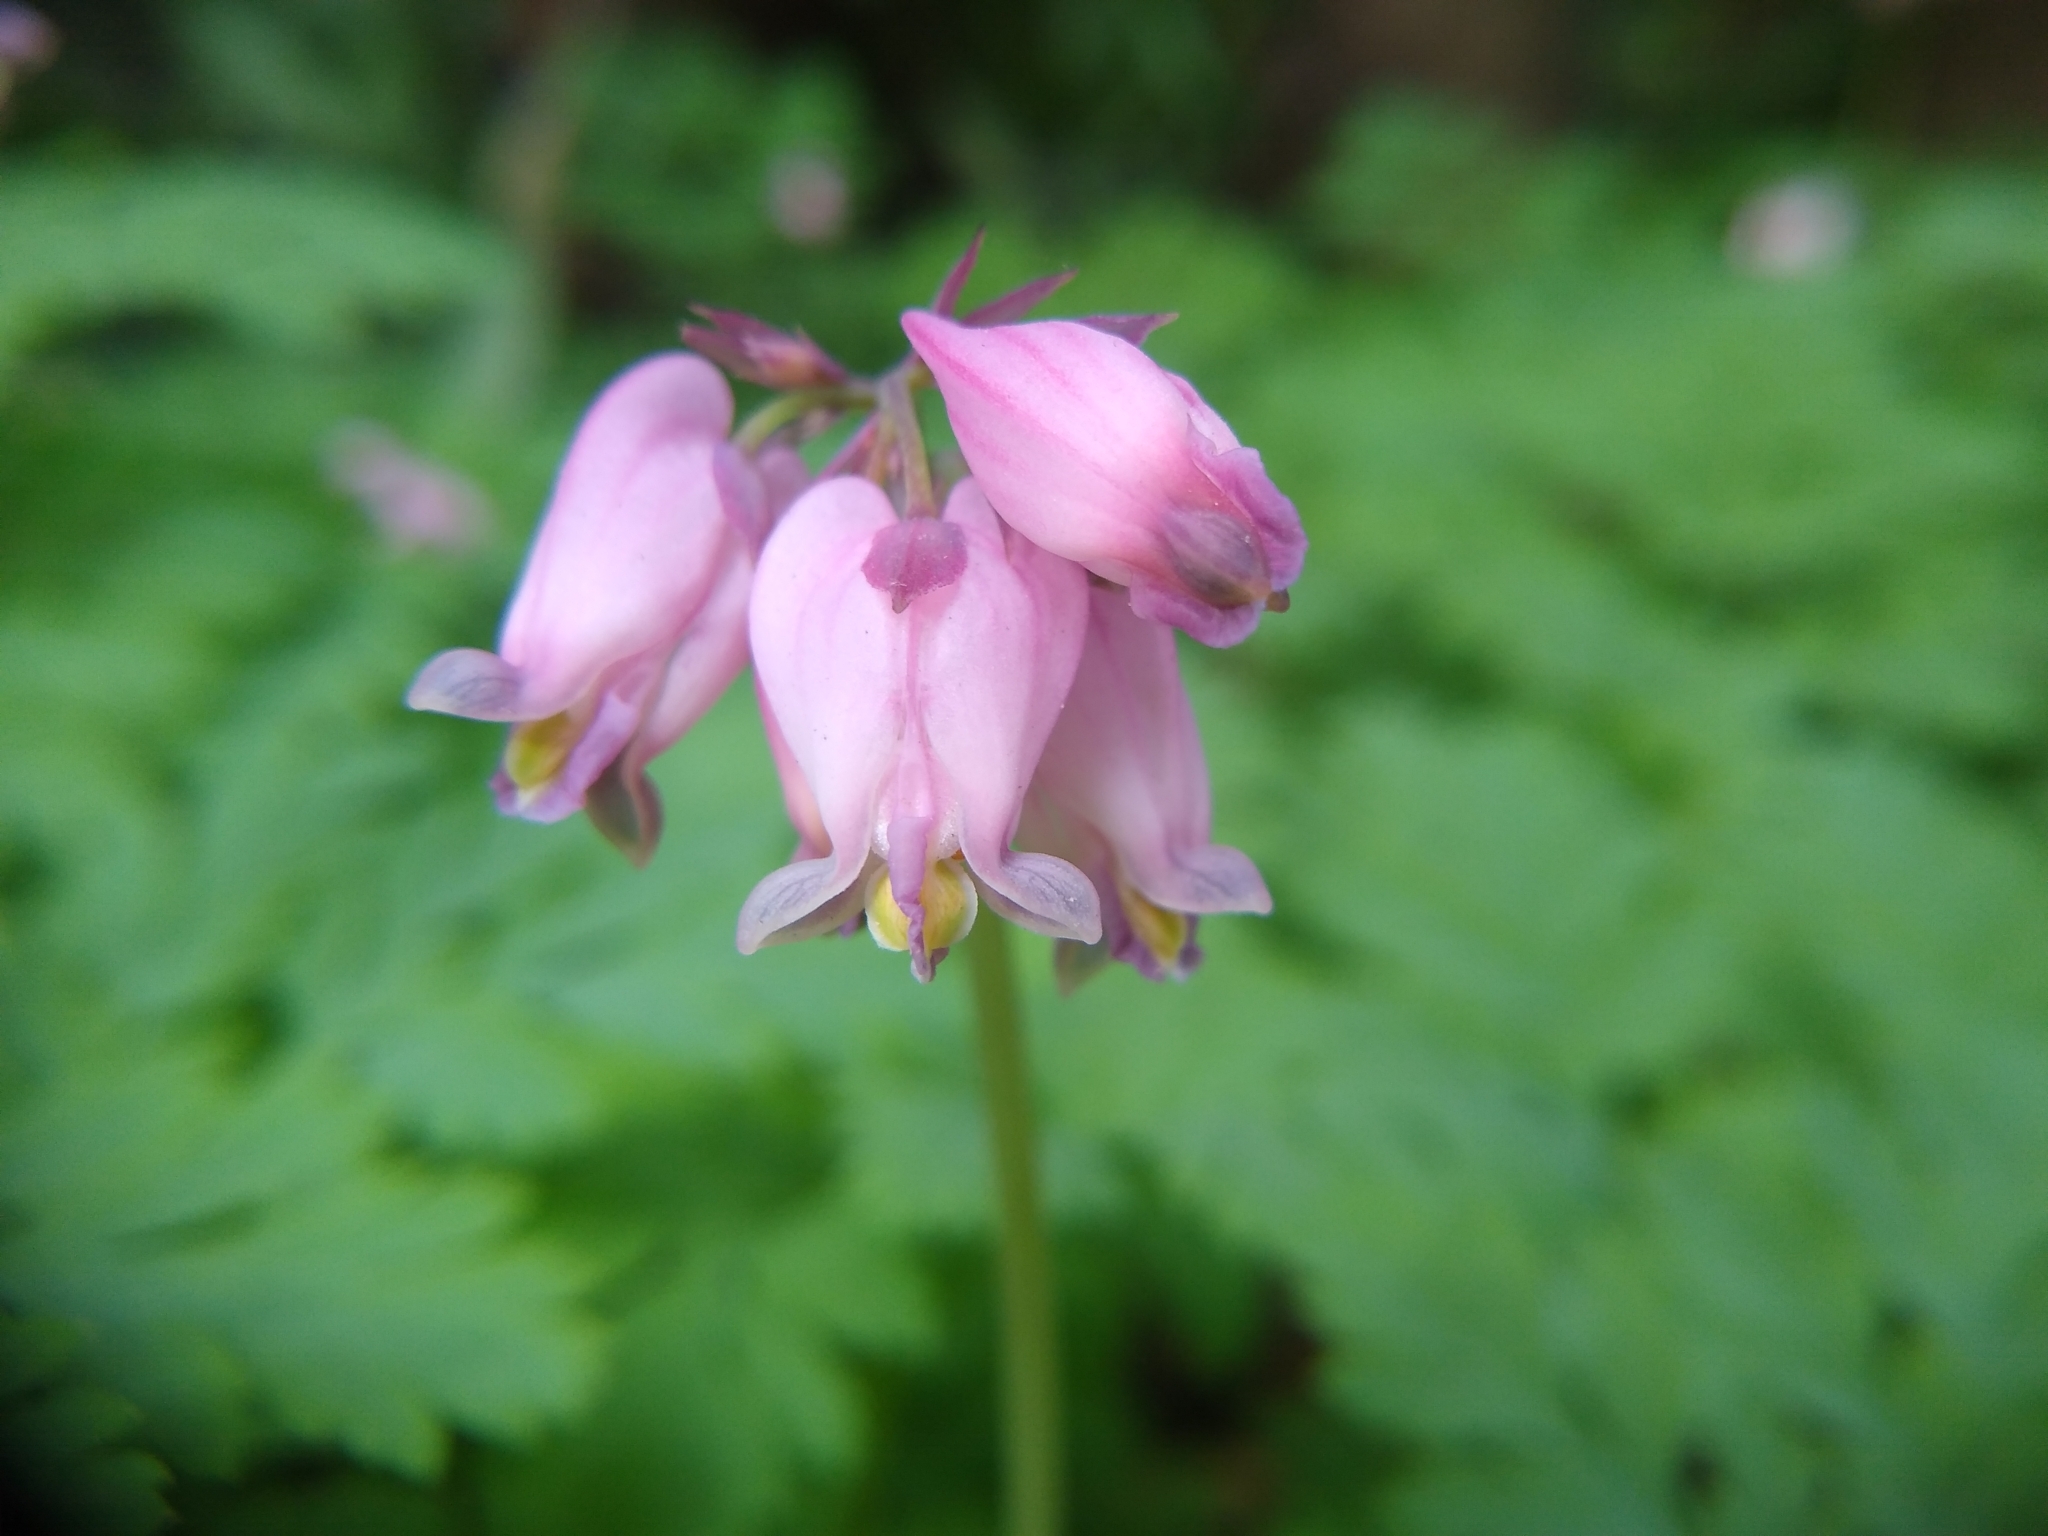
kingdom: Plantae
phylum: Tracheophyta
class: Magnoliopsida
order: Ranunculales
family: Papaveraceae
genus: Dicentra
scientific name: Dicentra formosa
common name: Bleeding-heart
